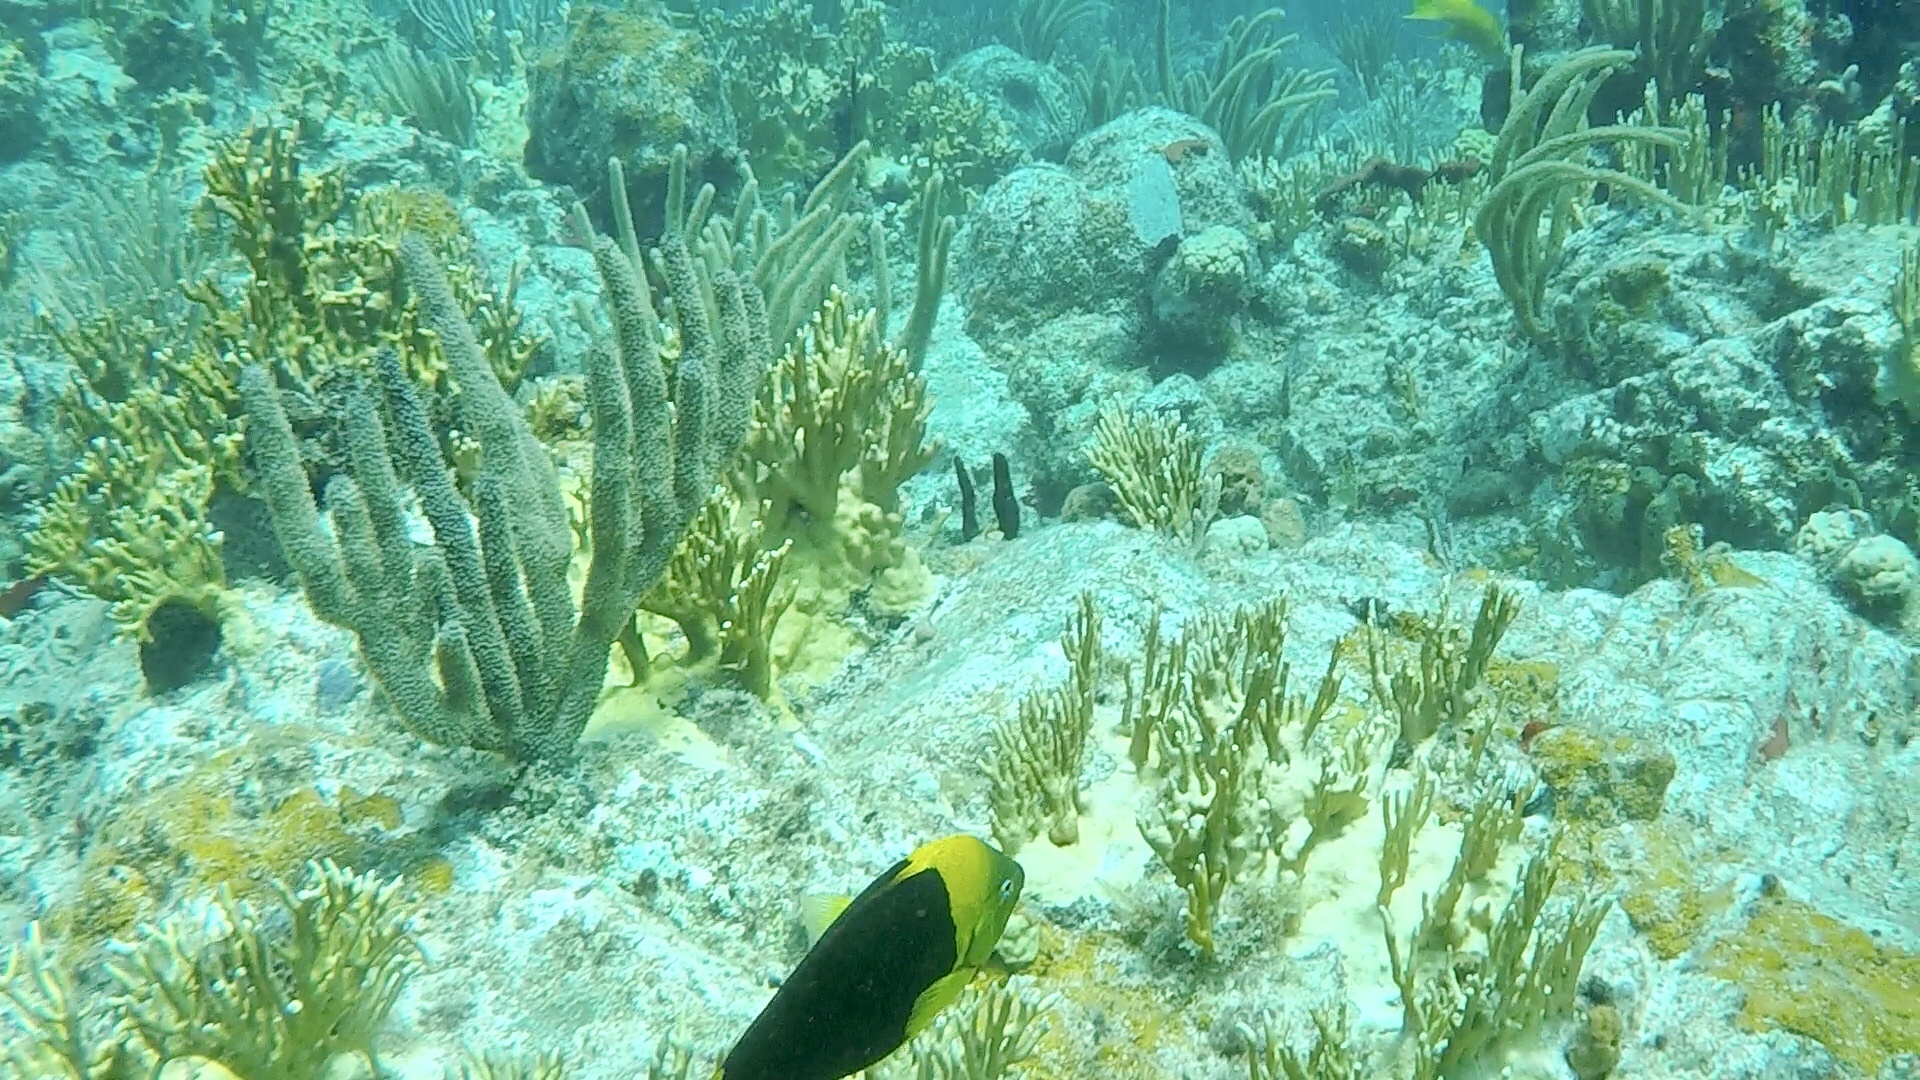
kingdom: Animalia
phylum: Chordata
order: Perciformes
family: Pomacanthidae
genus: Holacanthus
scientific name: Holacanthus tricolor
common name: Rock beauty
